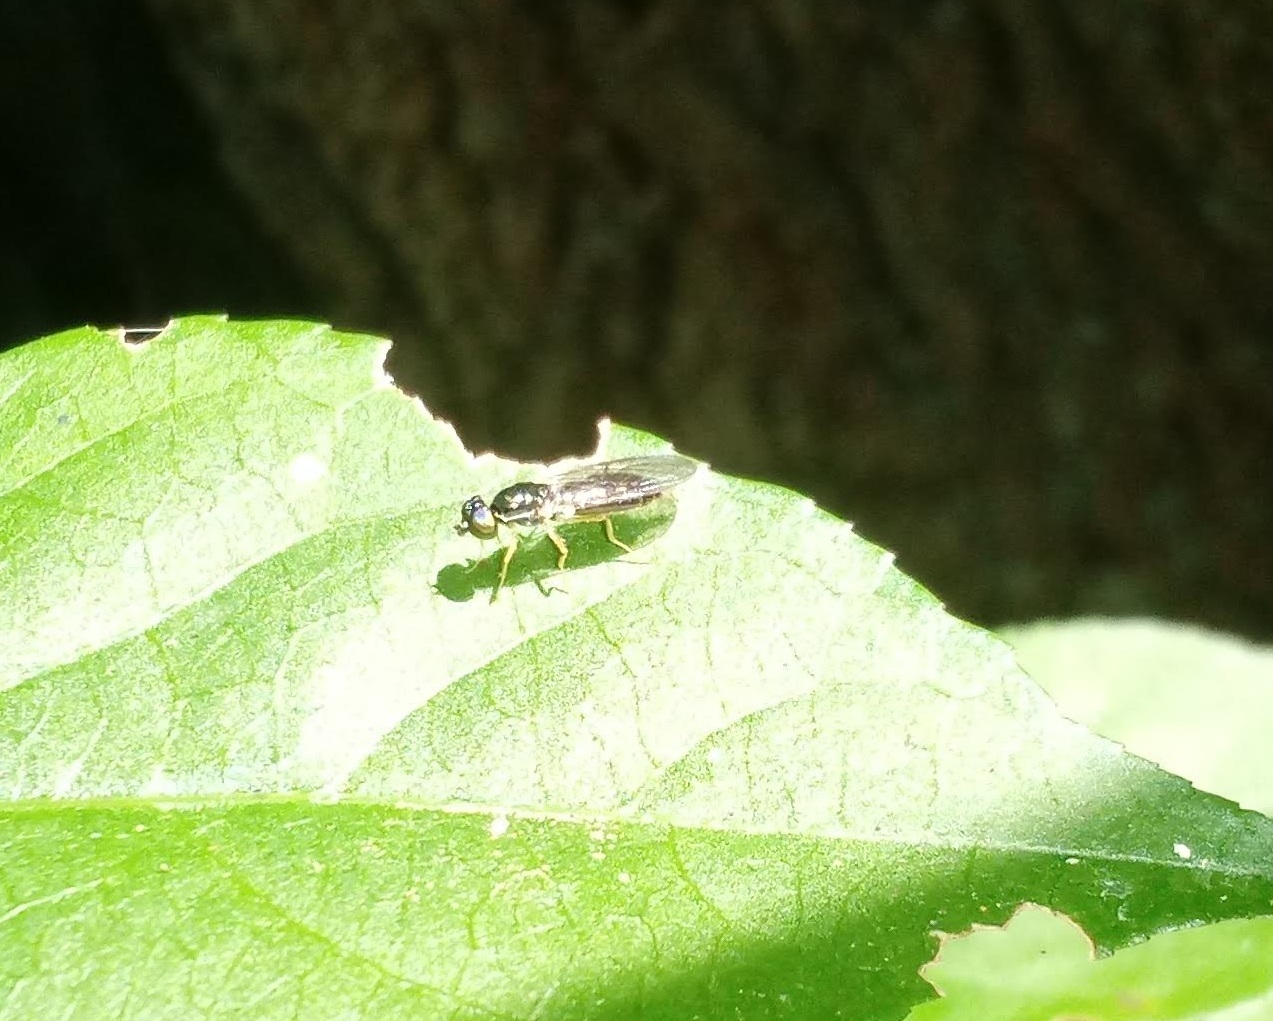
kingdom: Animalia
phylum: Arthropoda
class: Insecta
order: Diptera
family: Stratiomyidae
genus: Sargus
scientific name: Sargus decorus
